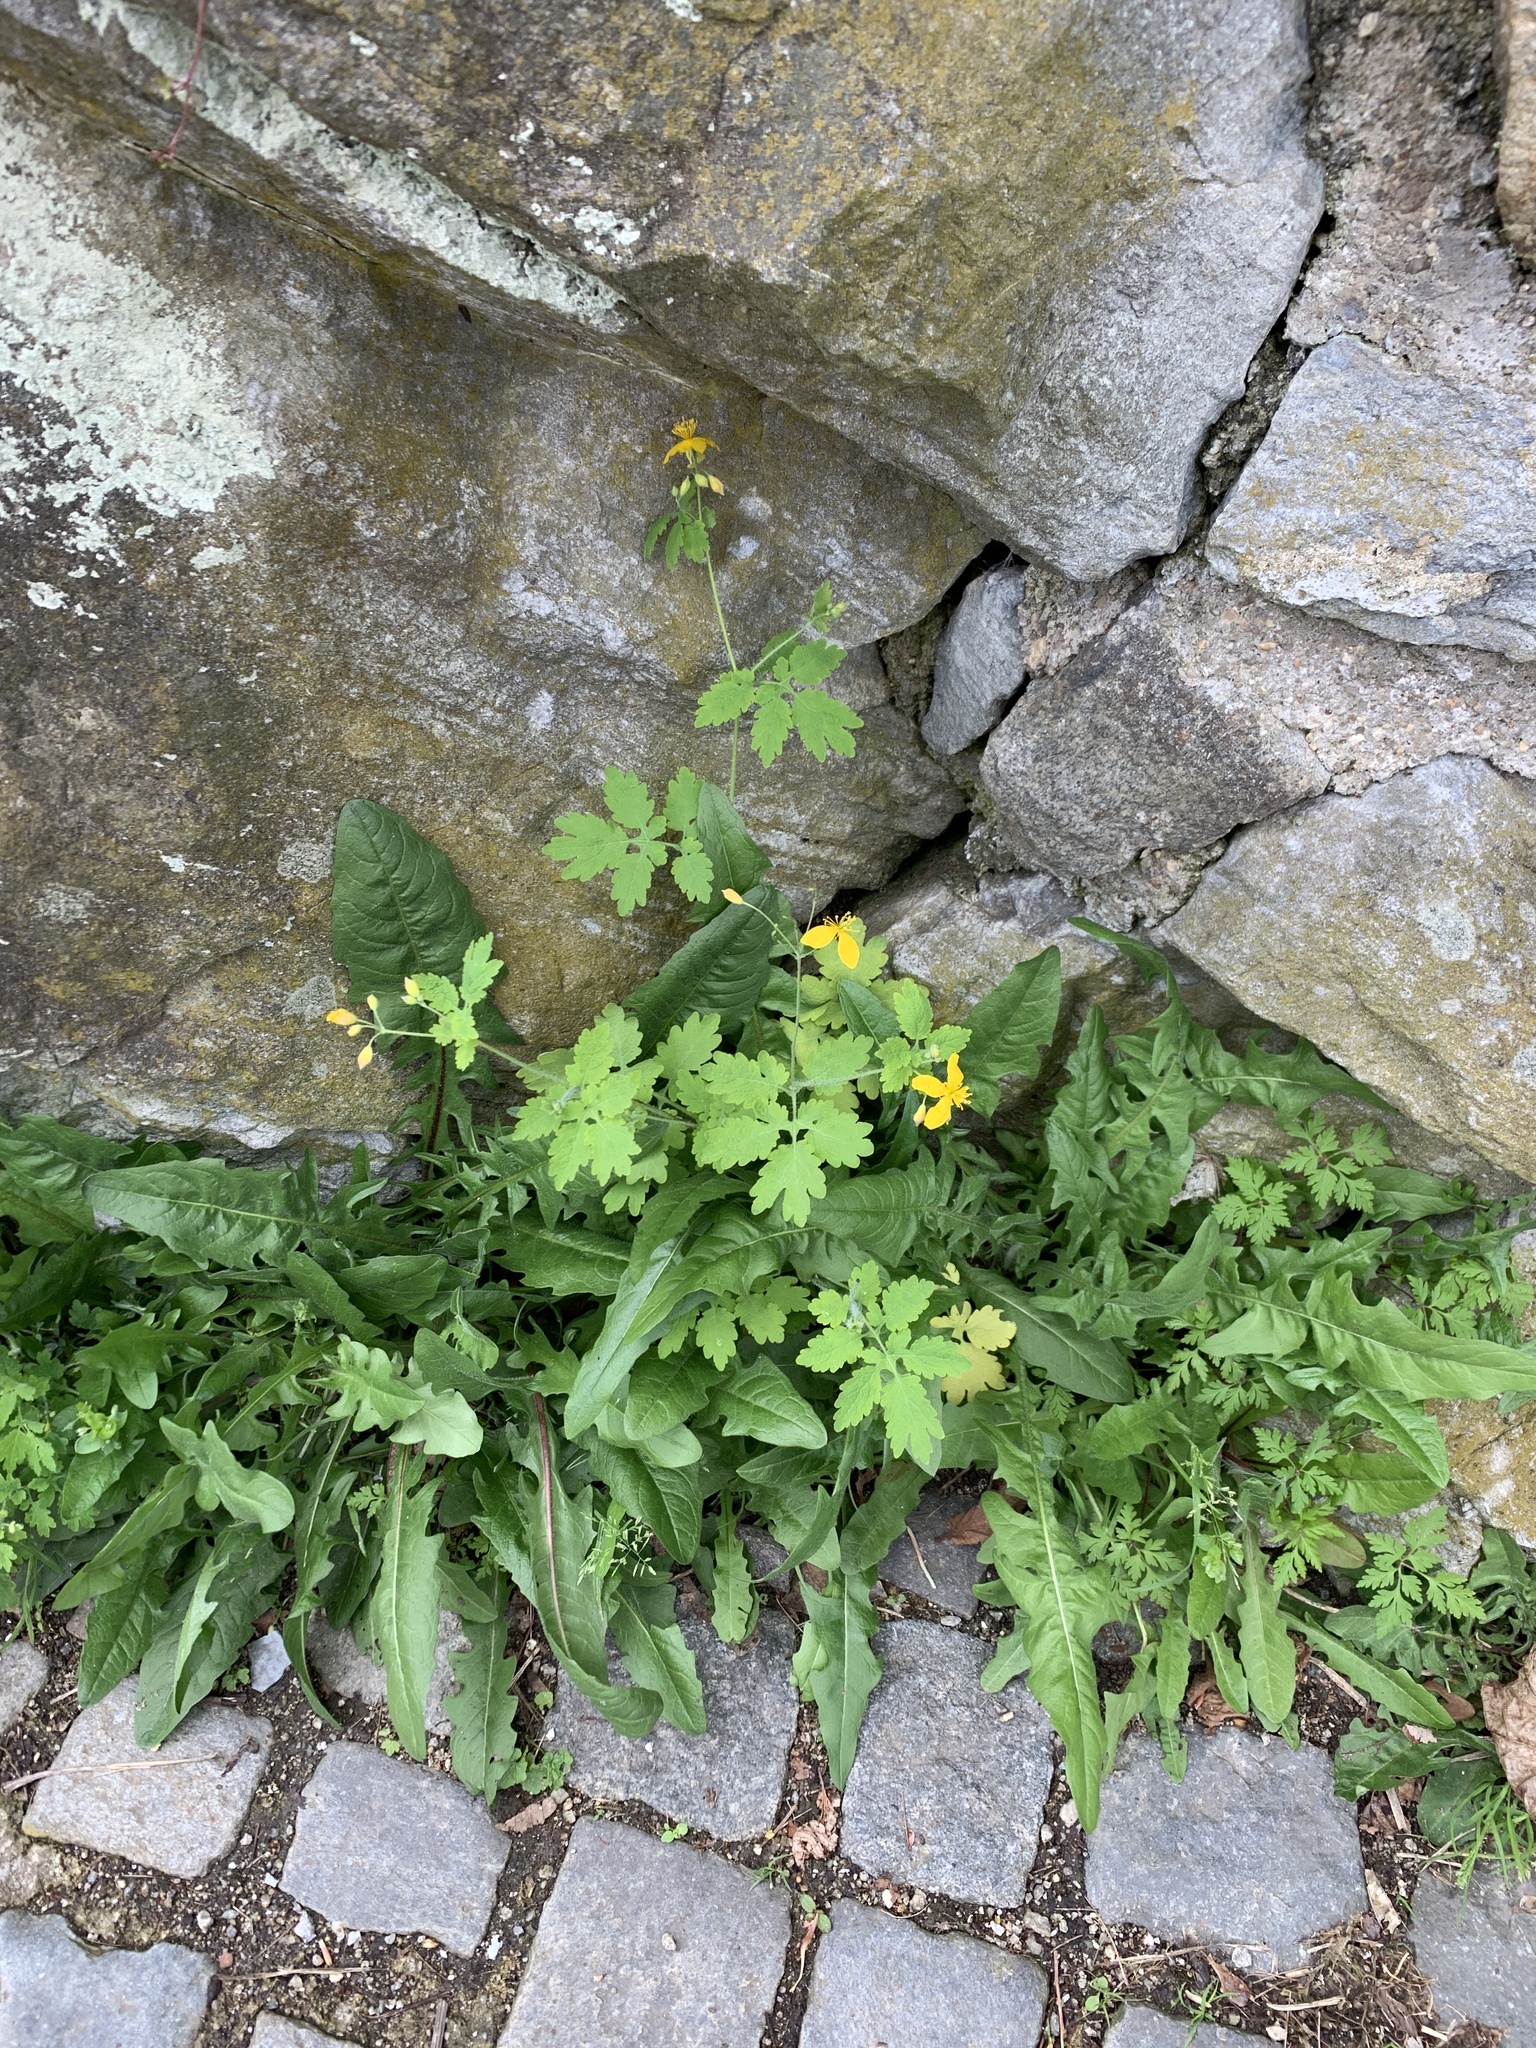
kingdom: Plantae
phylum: Tracheophyta
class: Magnoliopsida
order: Ranunculales
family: Papaveraceae
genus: Chelidonium
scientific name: Chelidonium majus
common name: Greater celandine
